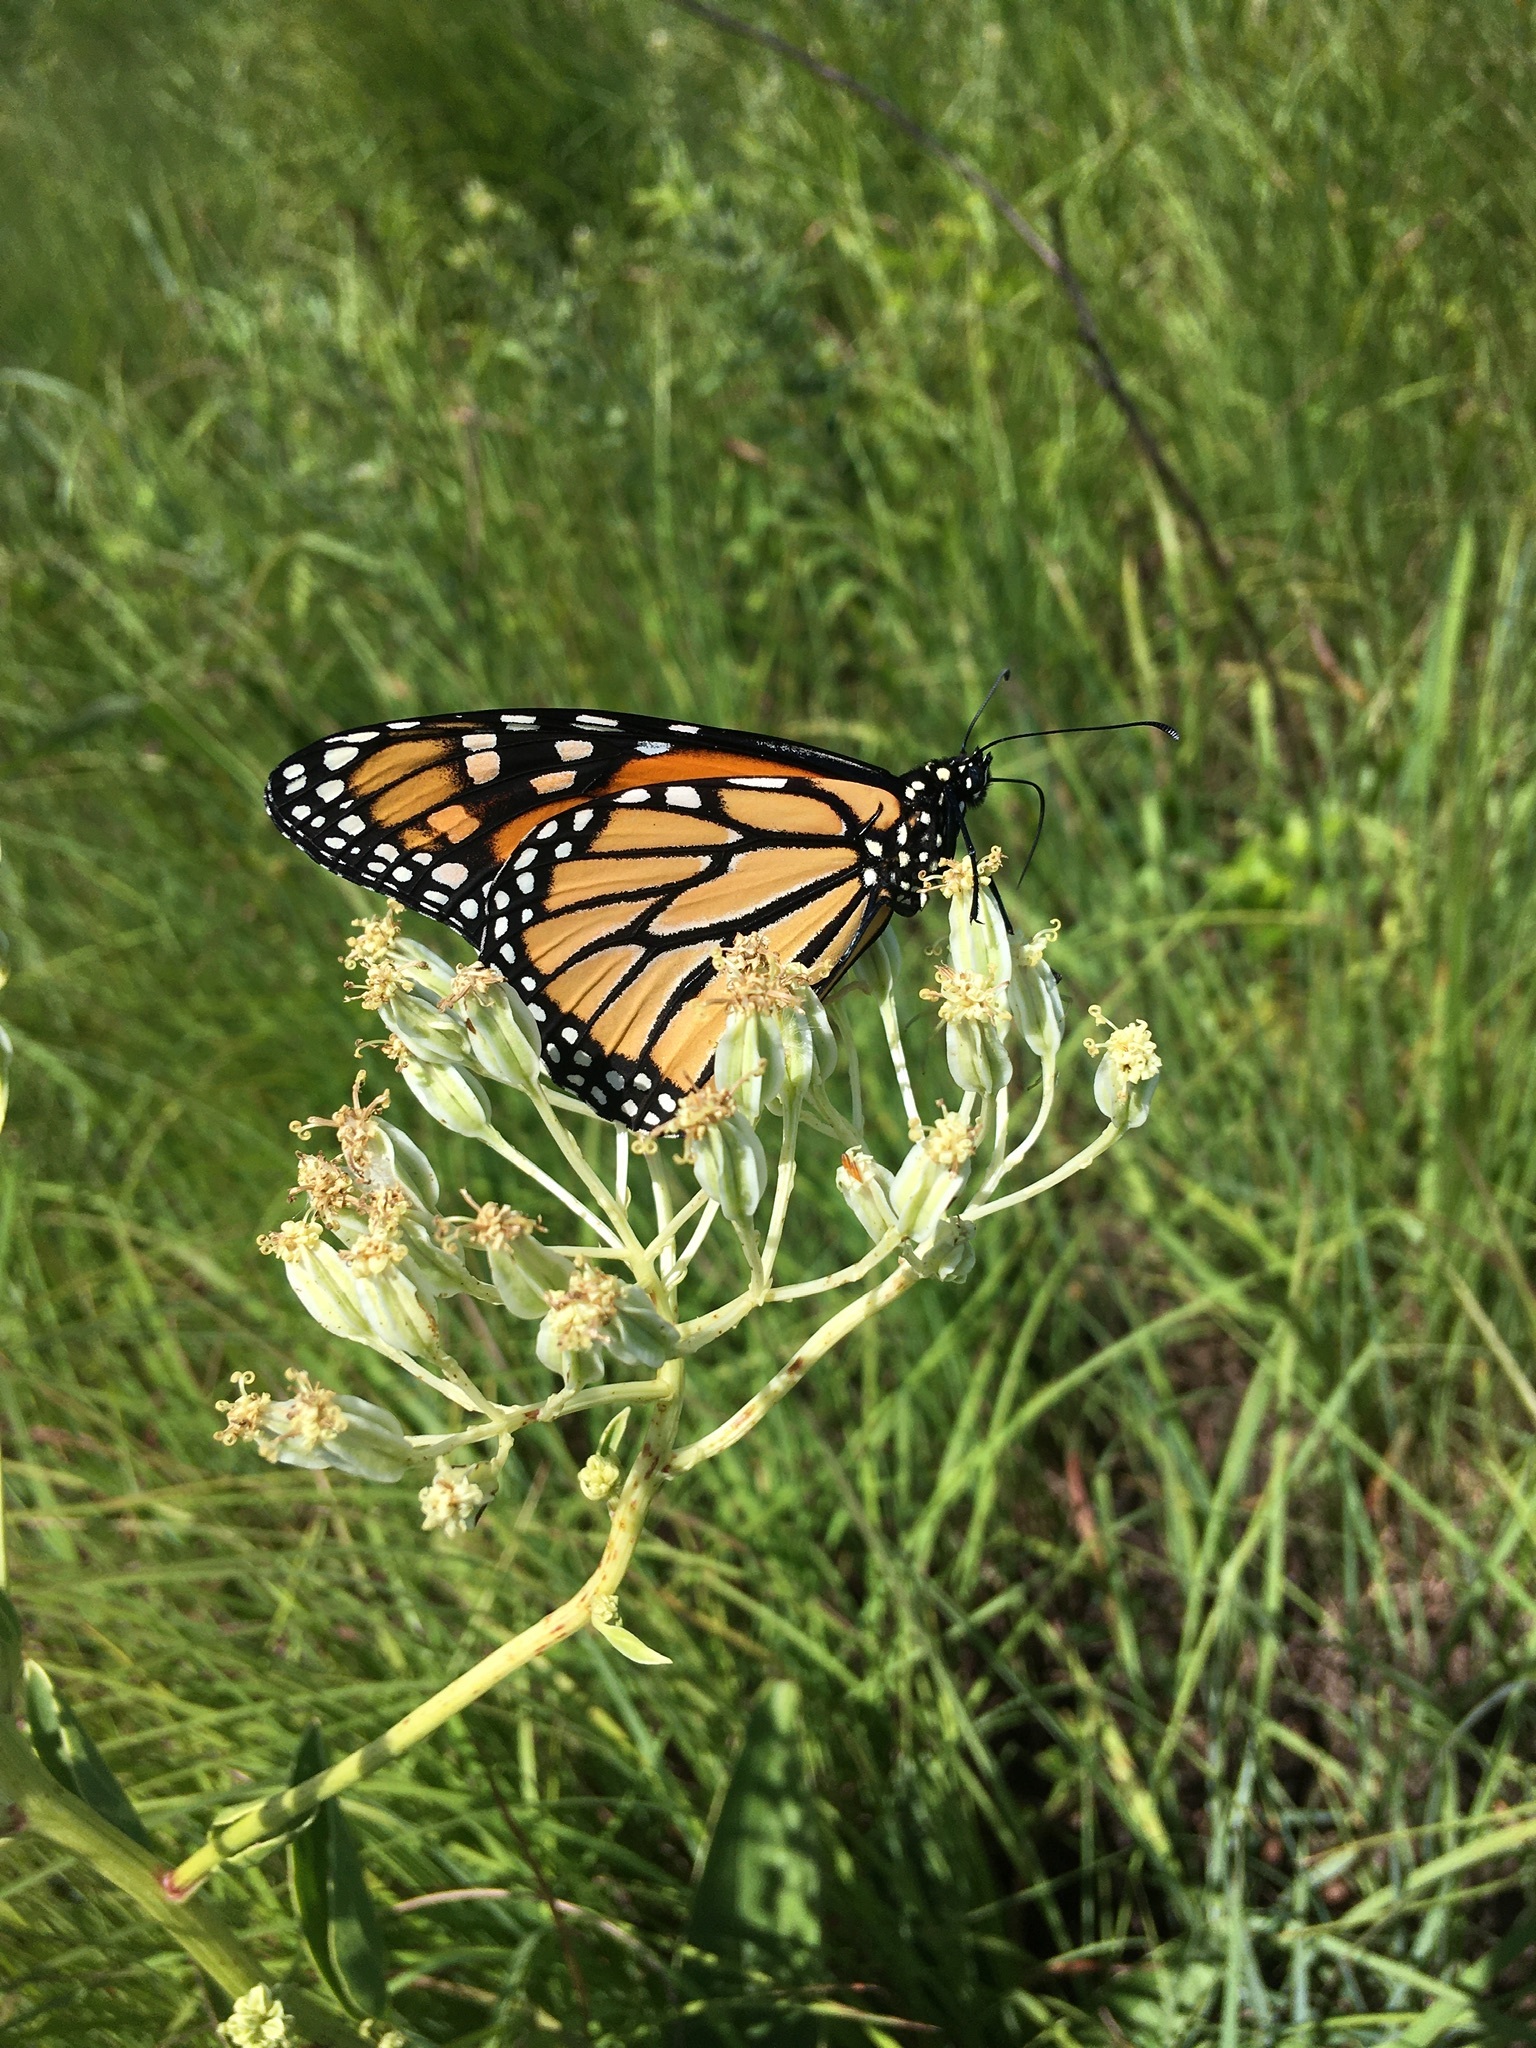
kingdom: Animalia
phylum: Arthropoda
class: Insecta
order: Lepidoptera
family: Nymphalidae
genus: Danaus
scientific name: Danaus plexippus
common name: Monarch
